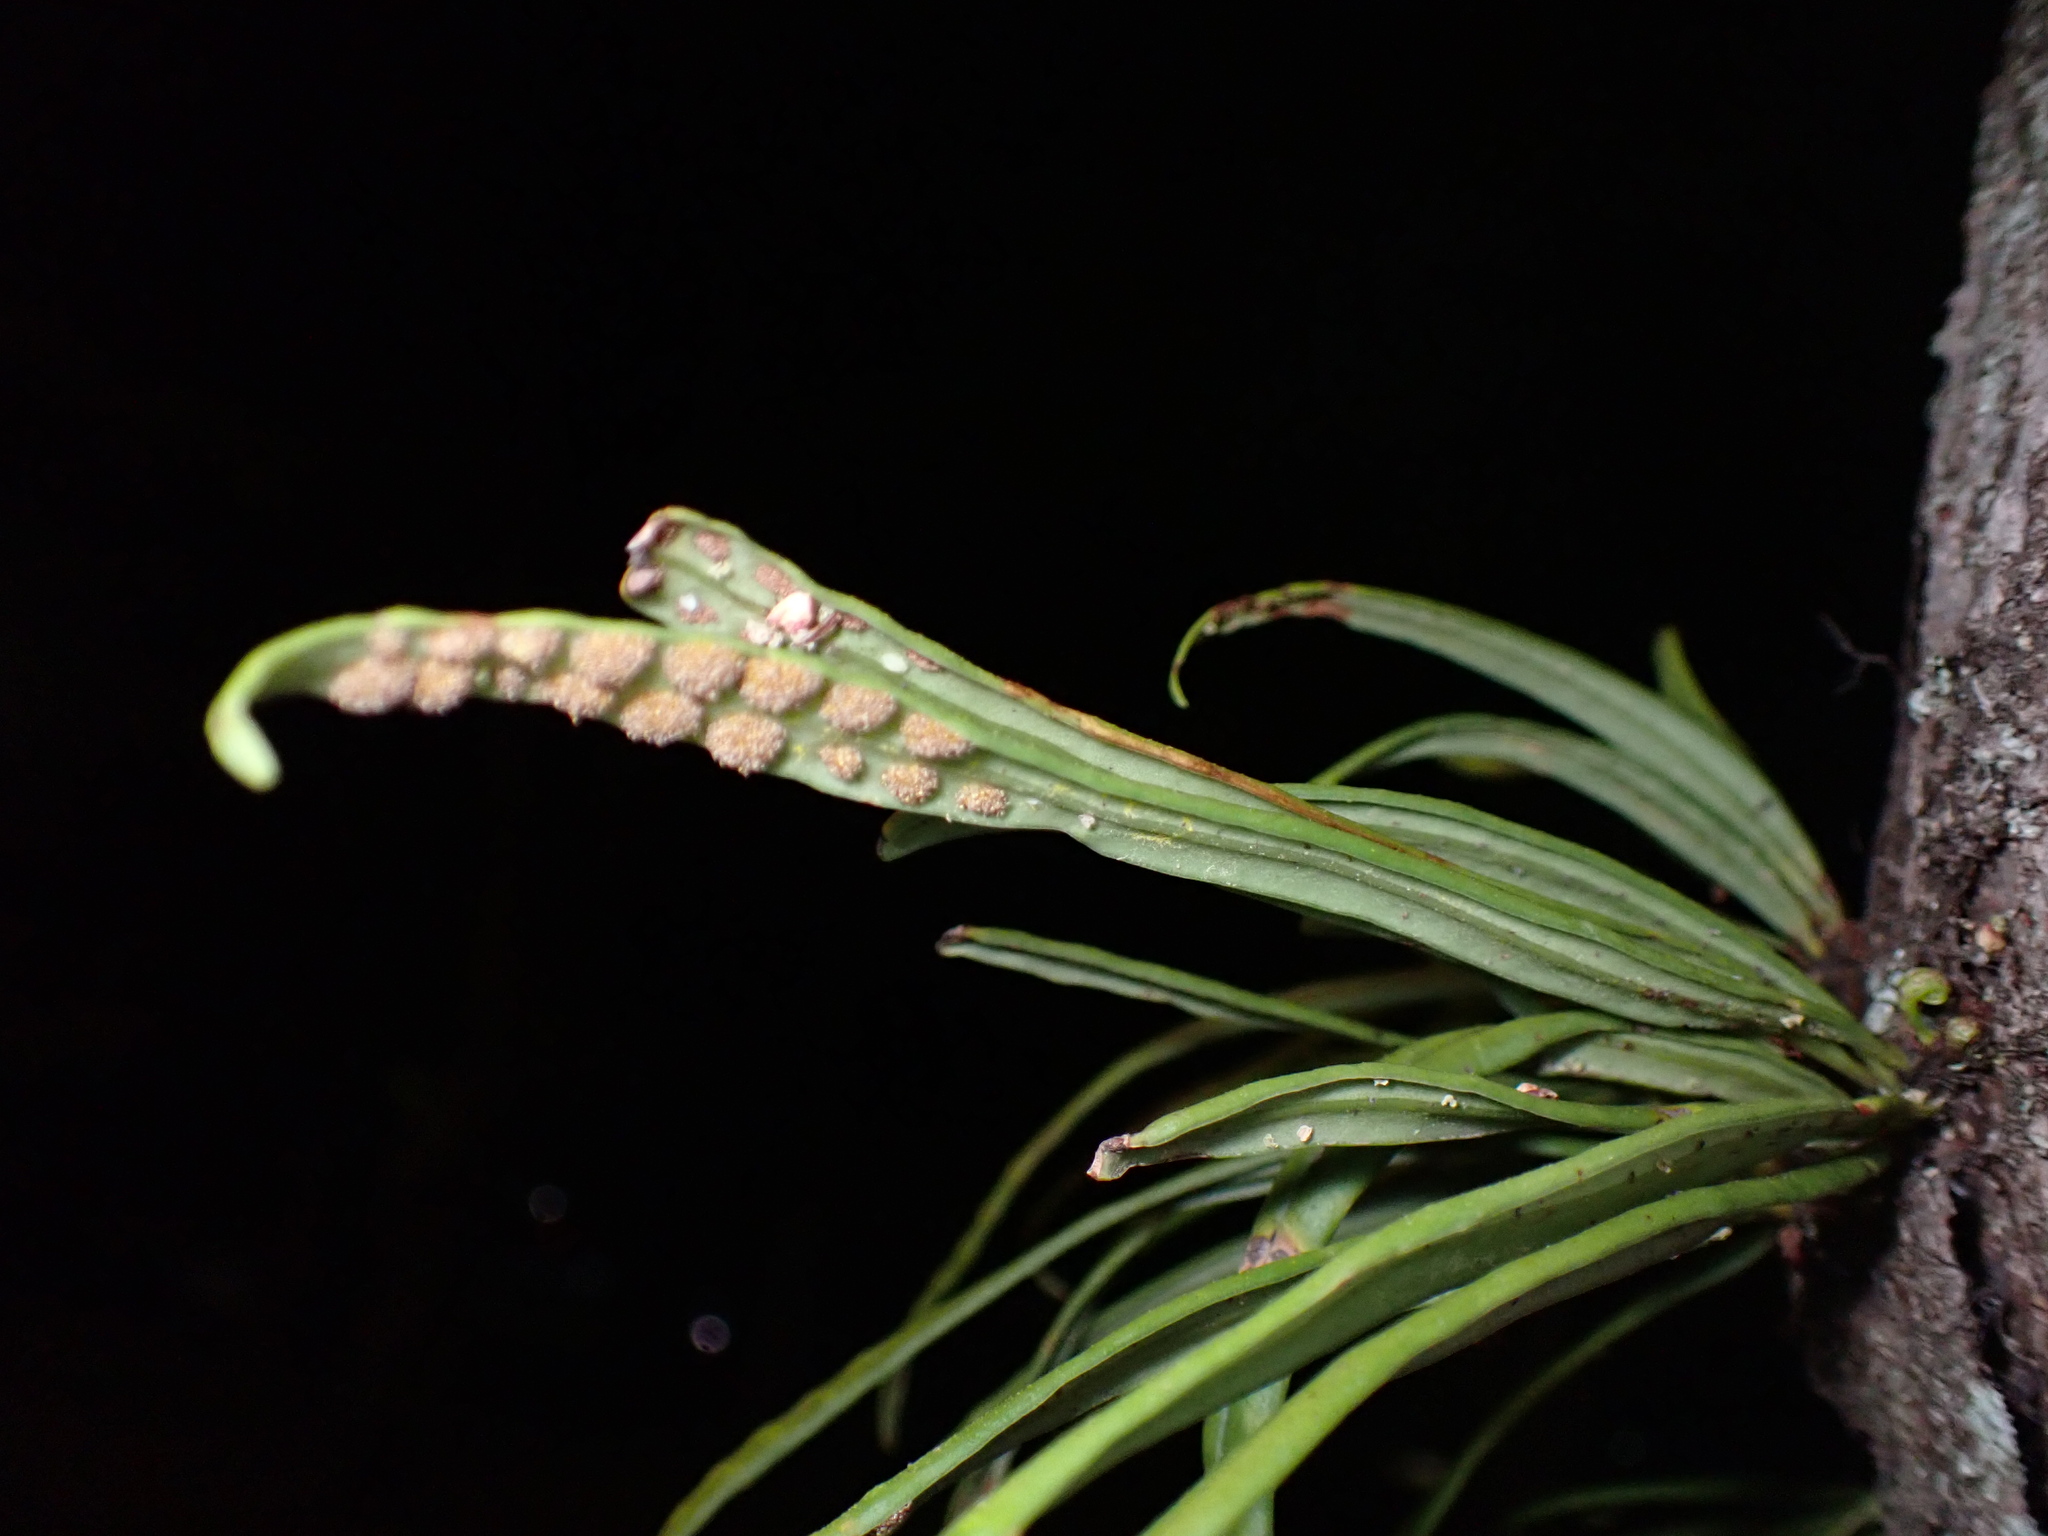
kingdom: Plantae
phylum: Tracheophyta
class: Polypodiopsida
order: Polypodiales
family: Polypodiaceae
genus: Lepisorus
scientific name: Lepisorus thunbergianus
